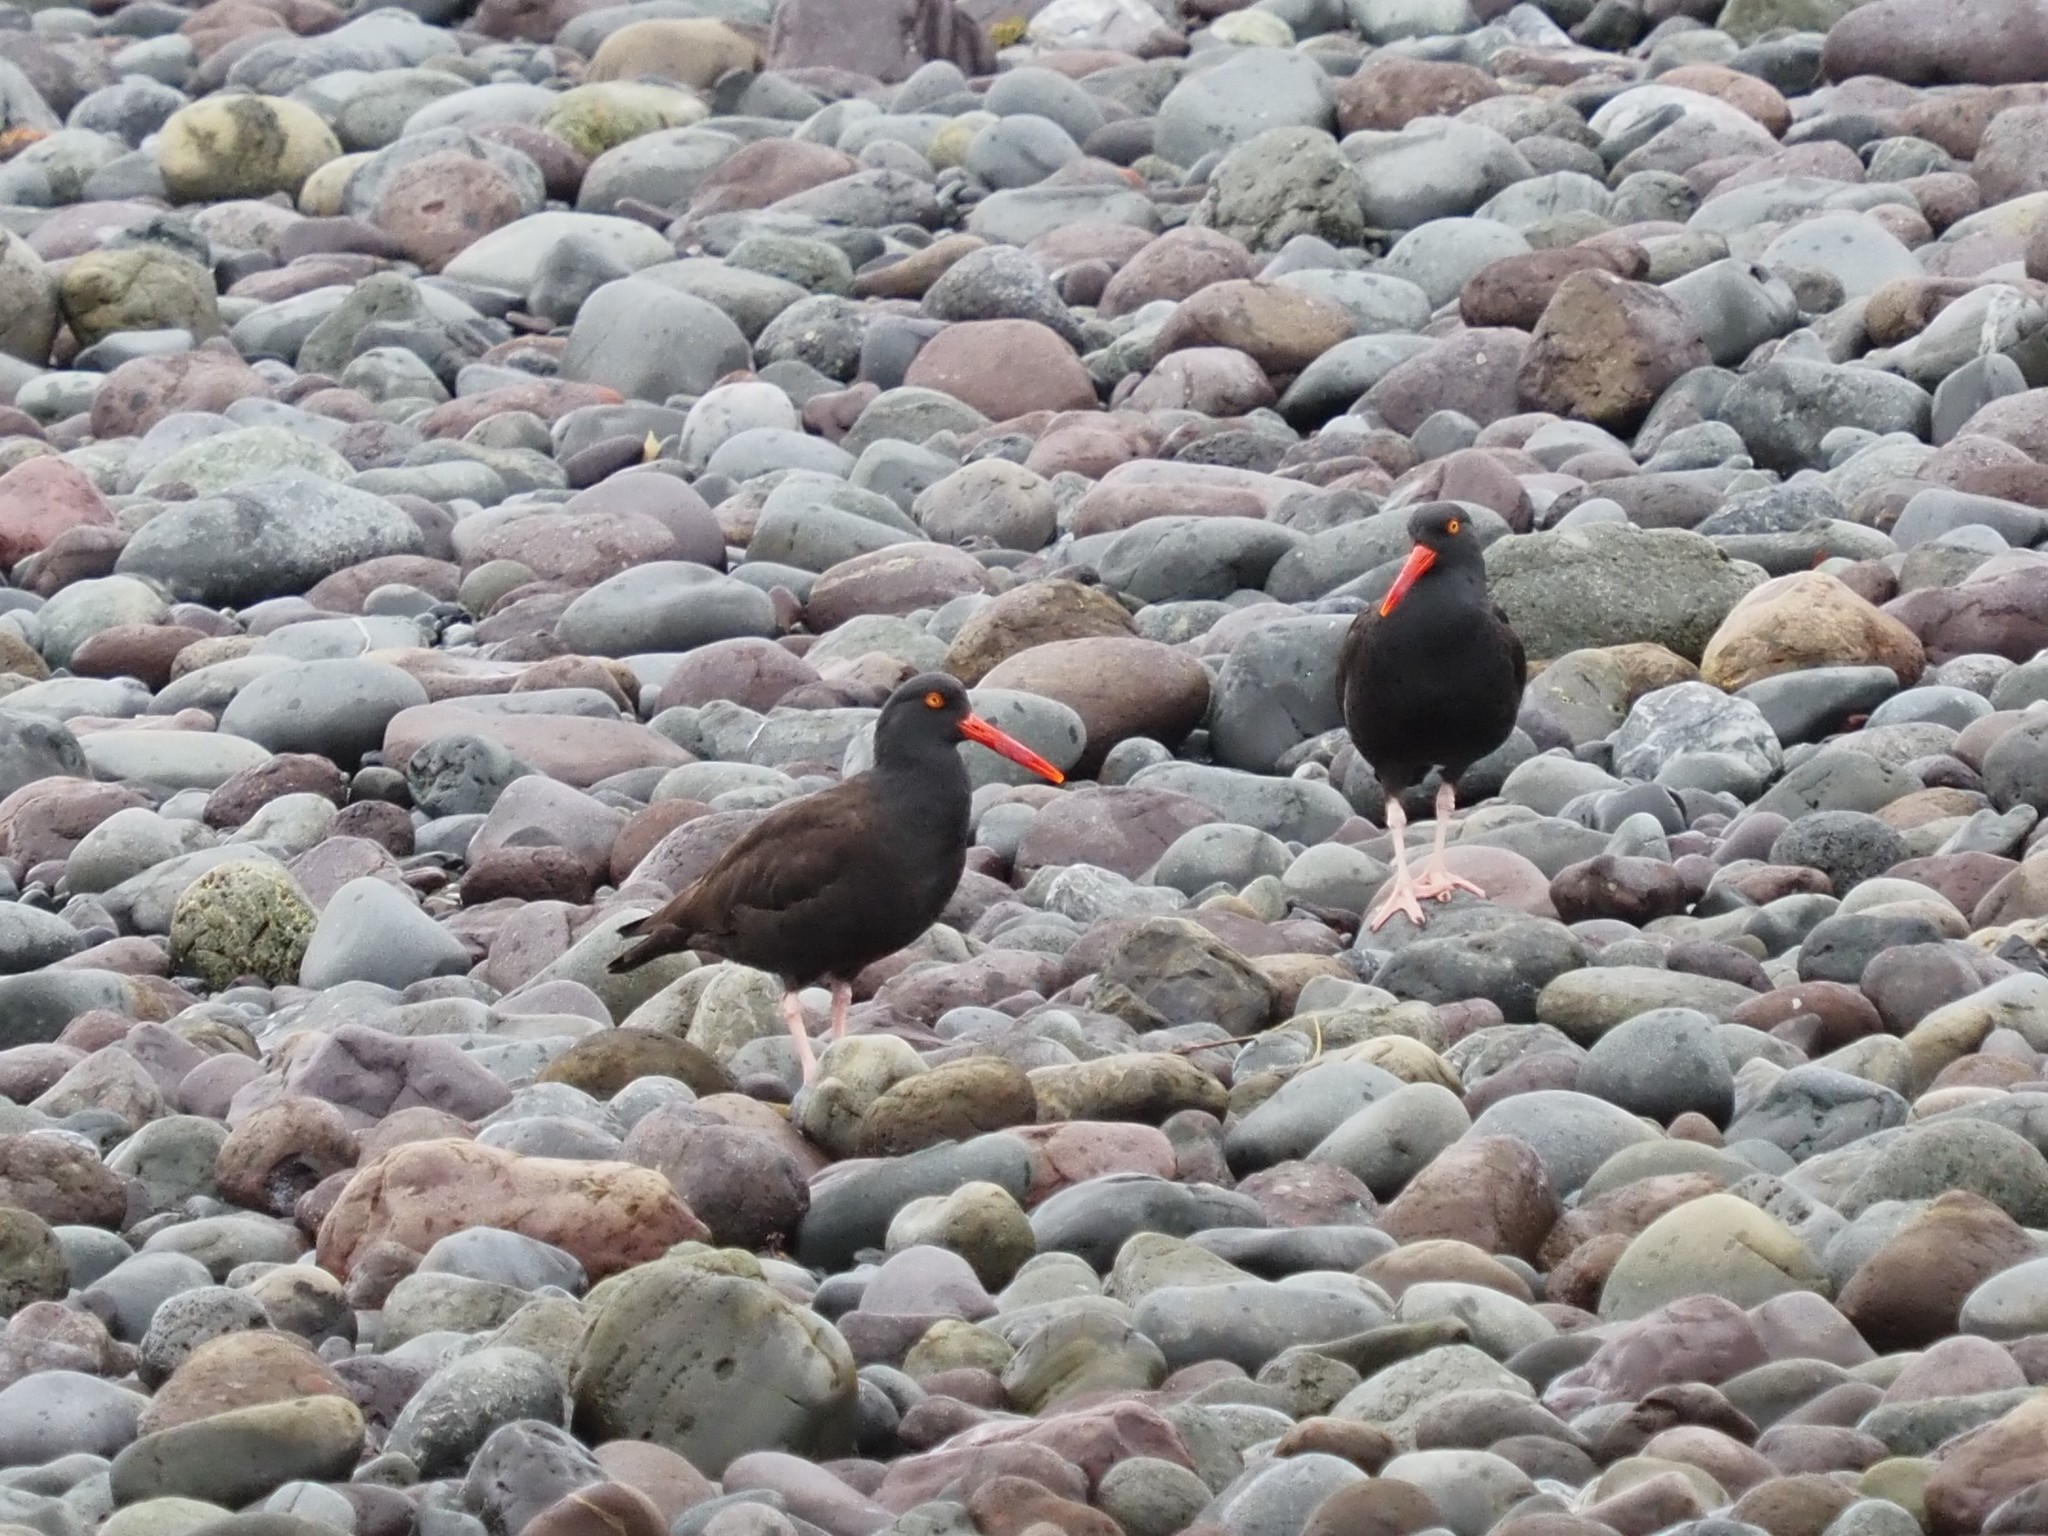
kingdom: Animalia
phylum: Chordata
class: Aves
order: Charadriiformes
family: Haematopodidae
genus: Haematopus
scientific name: Haematopus bachmani
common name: Black oystercatcher
